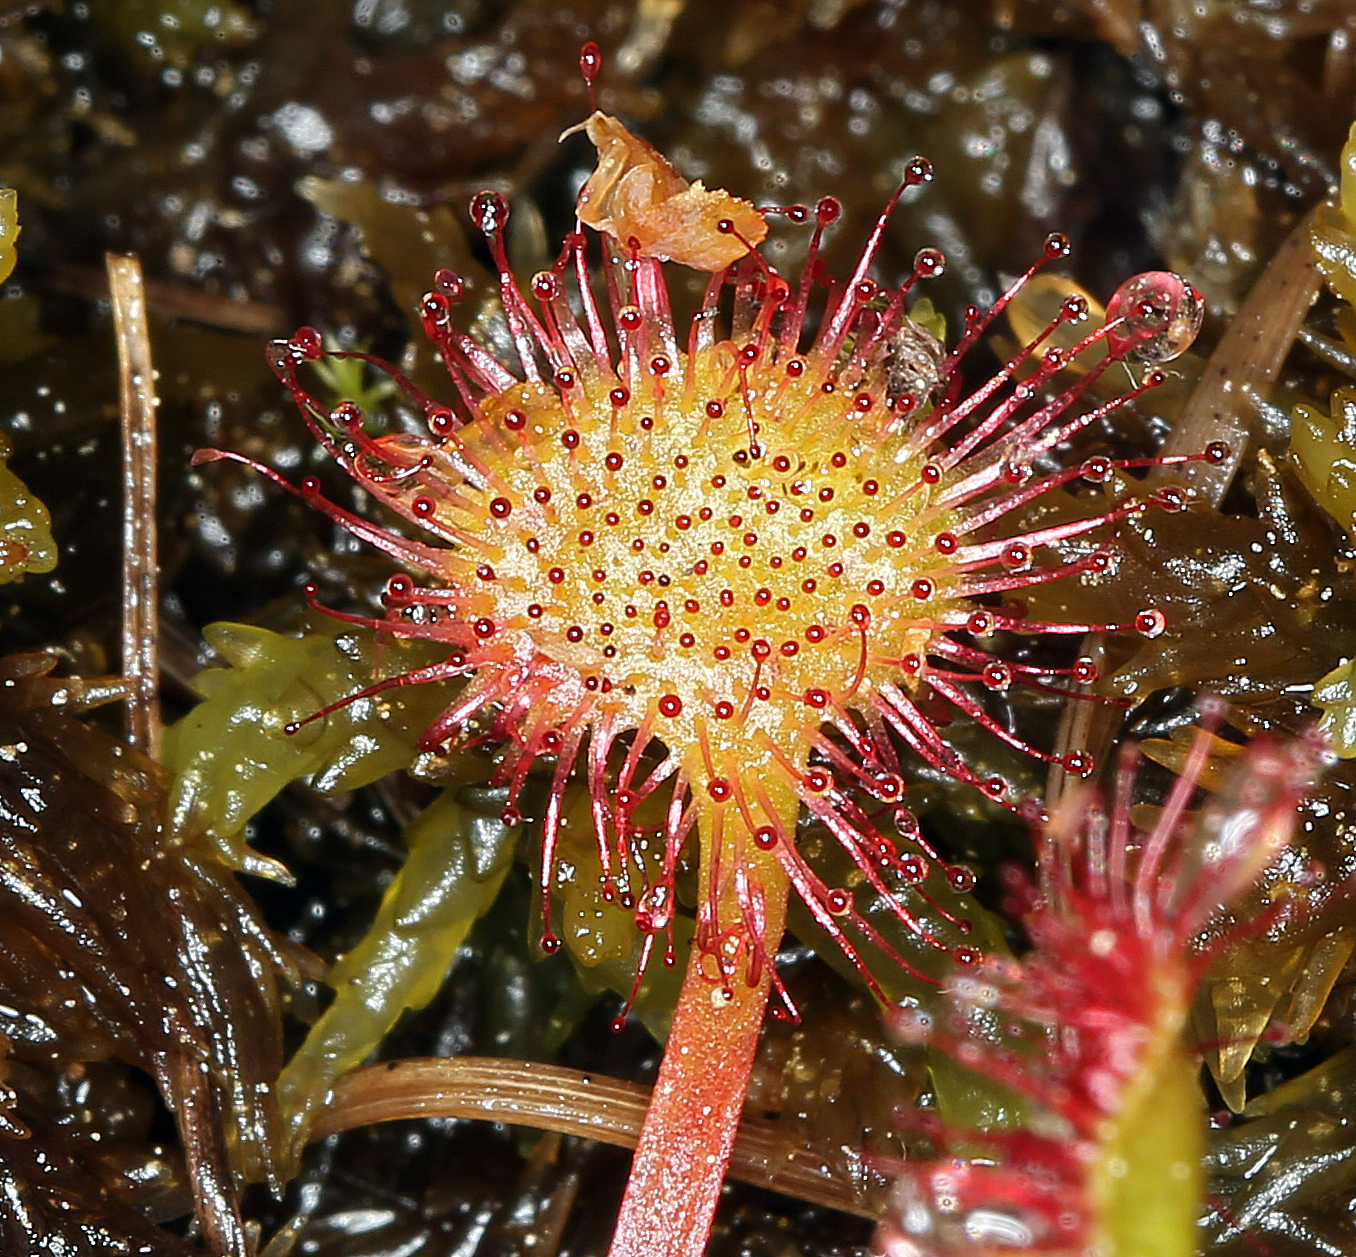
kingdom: Plantae
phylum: Tracheophyta
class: Magnoliopsida
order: Caryophyllales
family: Droseraceae
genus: Drosera
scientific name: Drosera rotundifolia
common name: Round-leaved sundew
